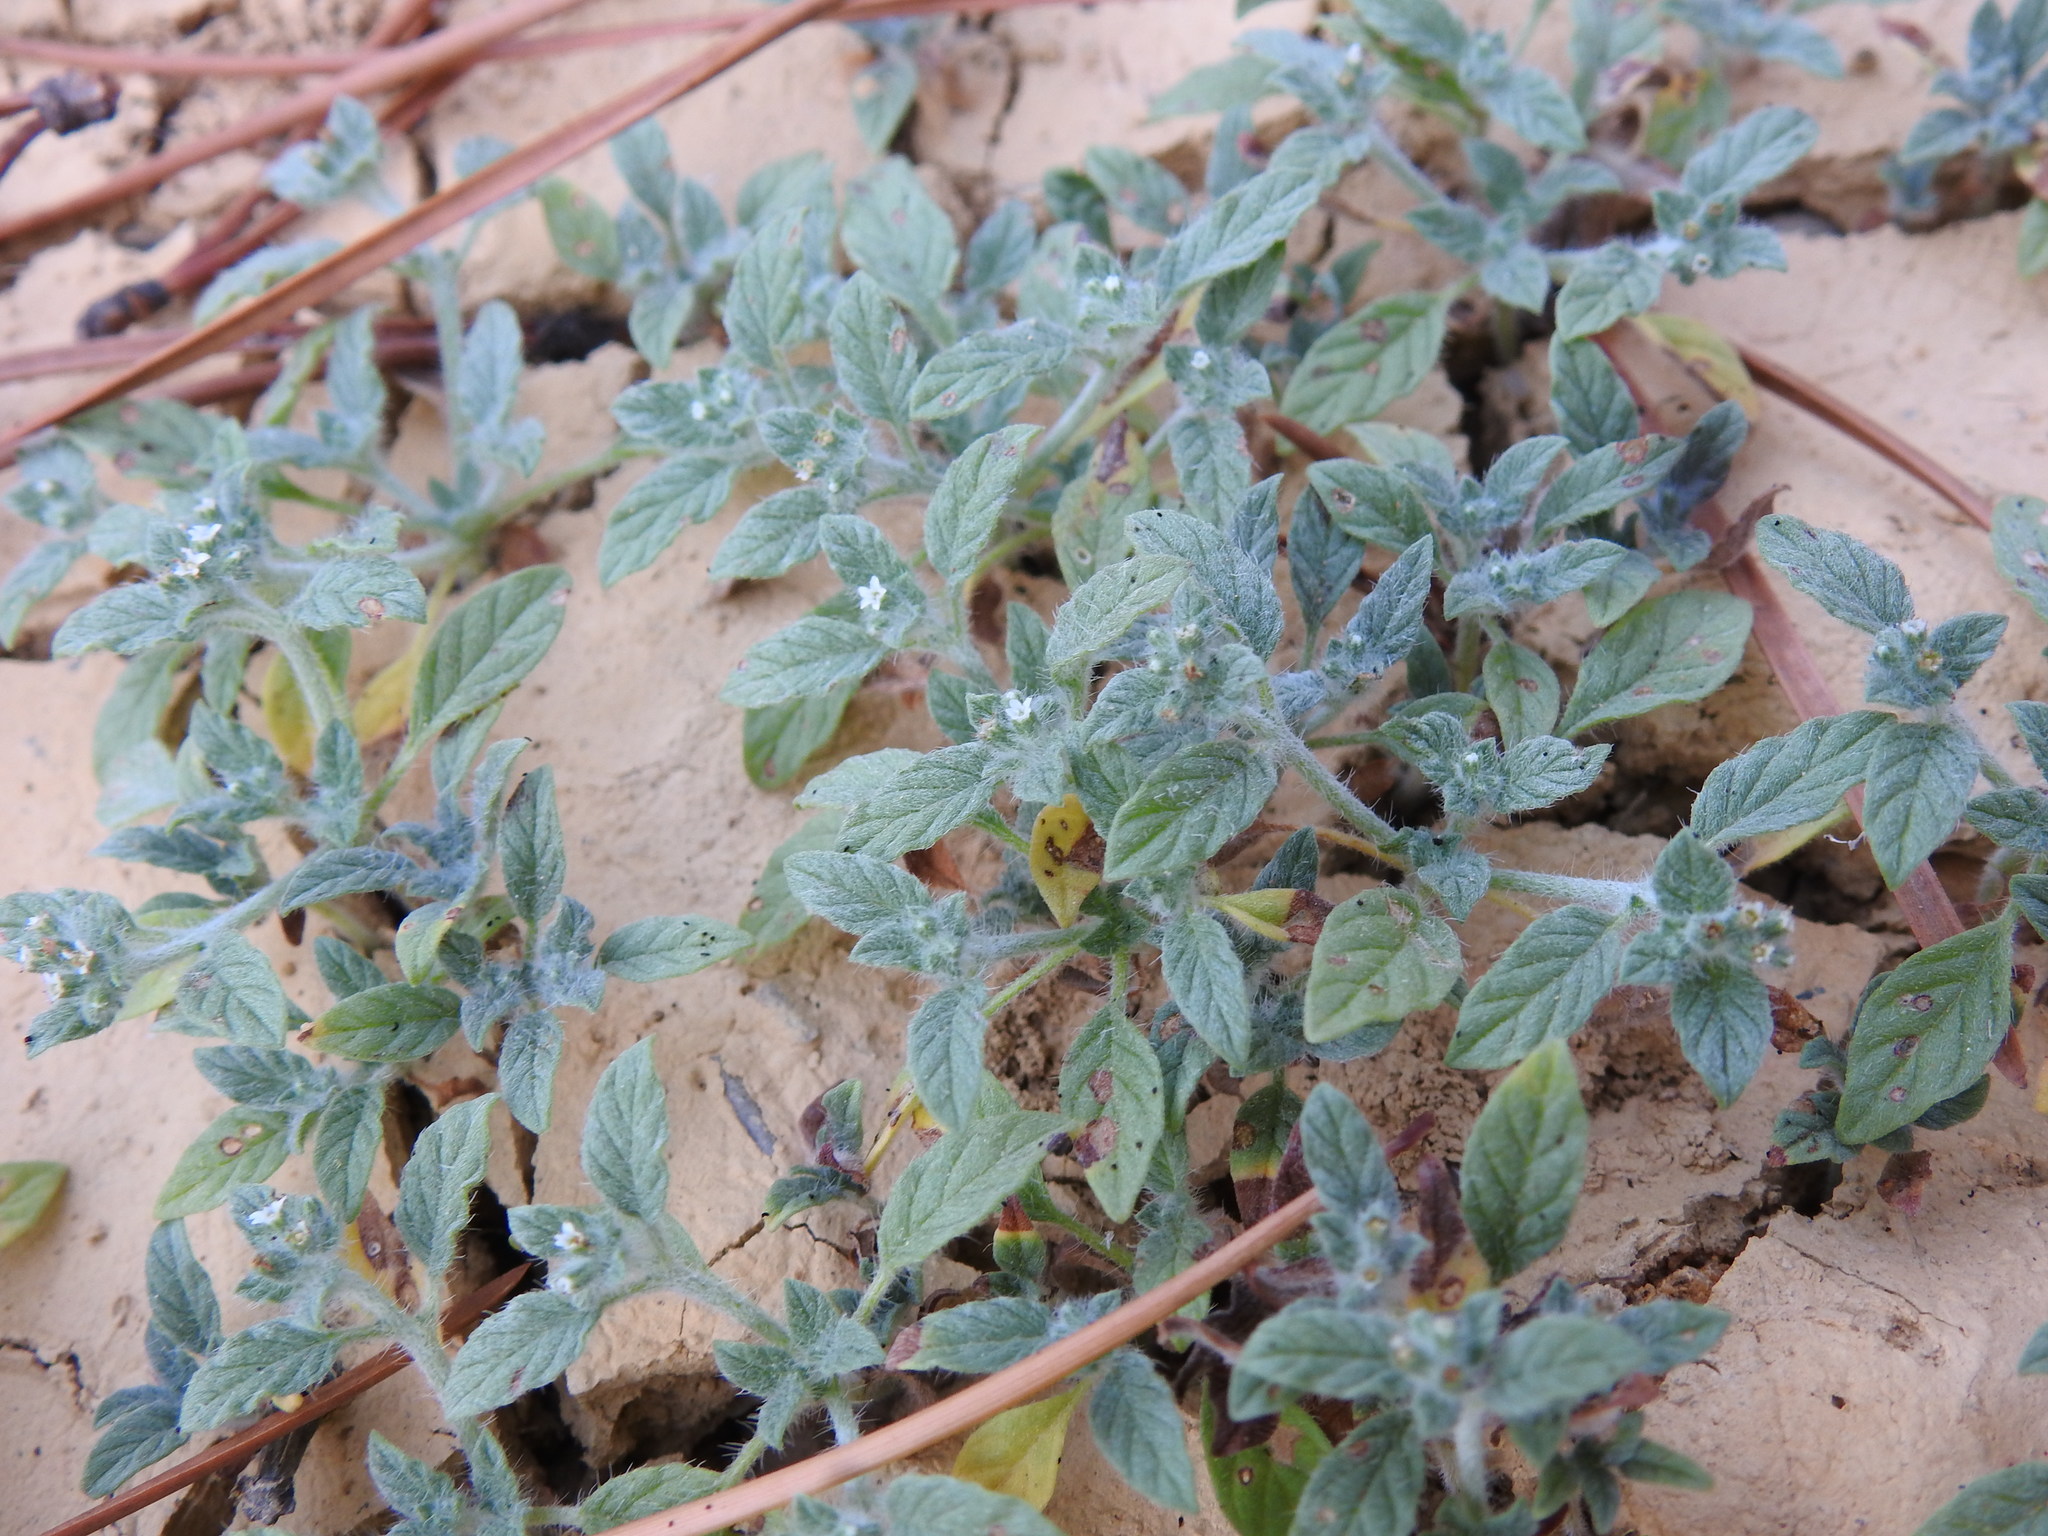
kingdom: Plantae
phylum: Tracheophyta
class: Magnoliopsida
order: Boraginales
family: Heliotropiaceae
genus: Heliotropium
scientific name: Heliotropium supinum
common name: Dwarf heliotrope
